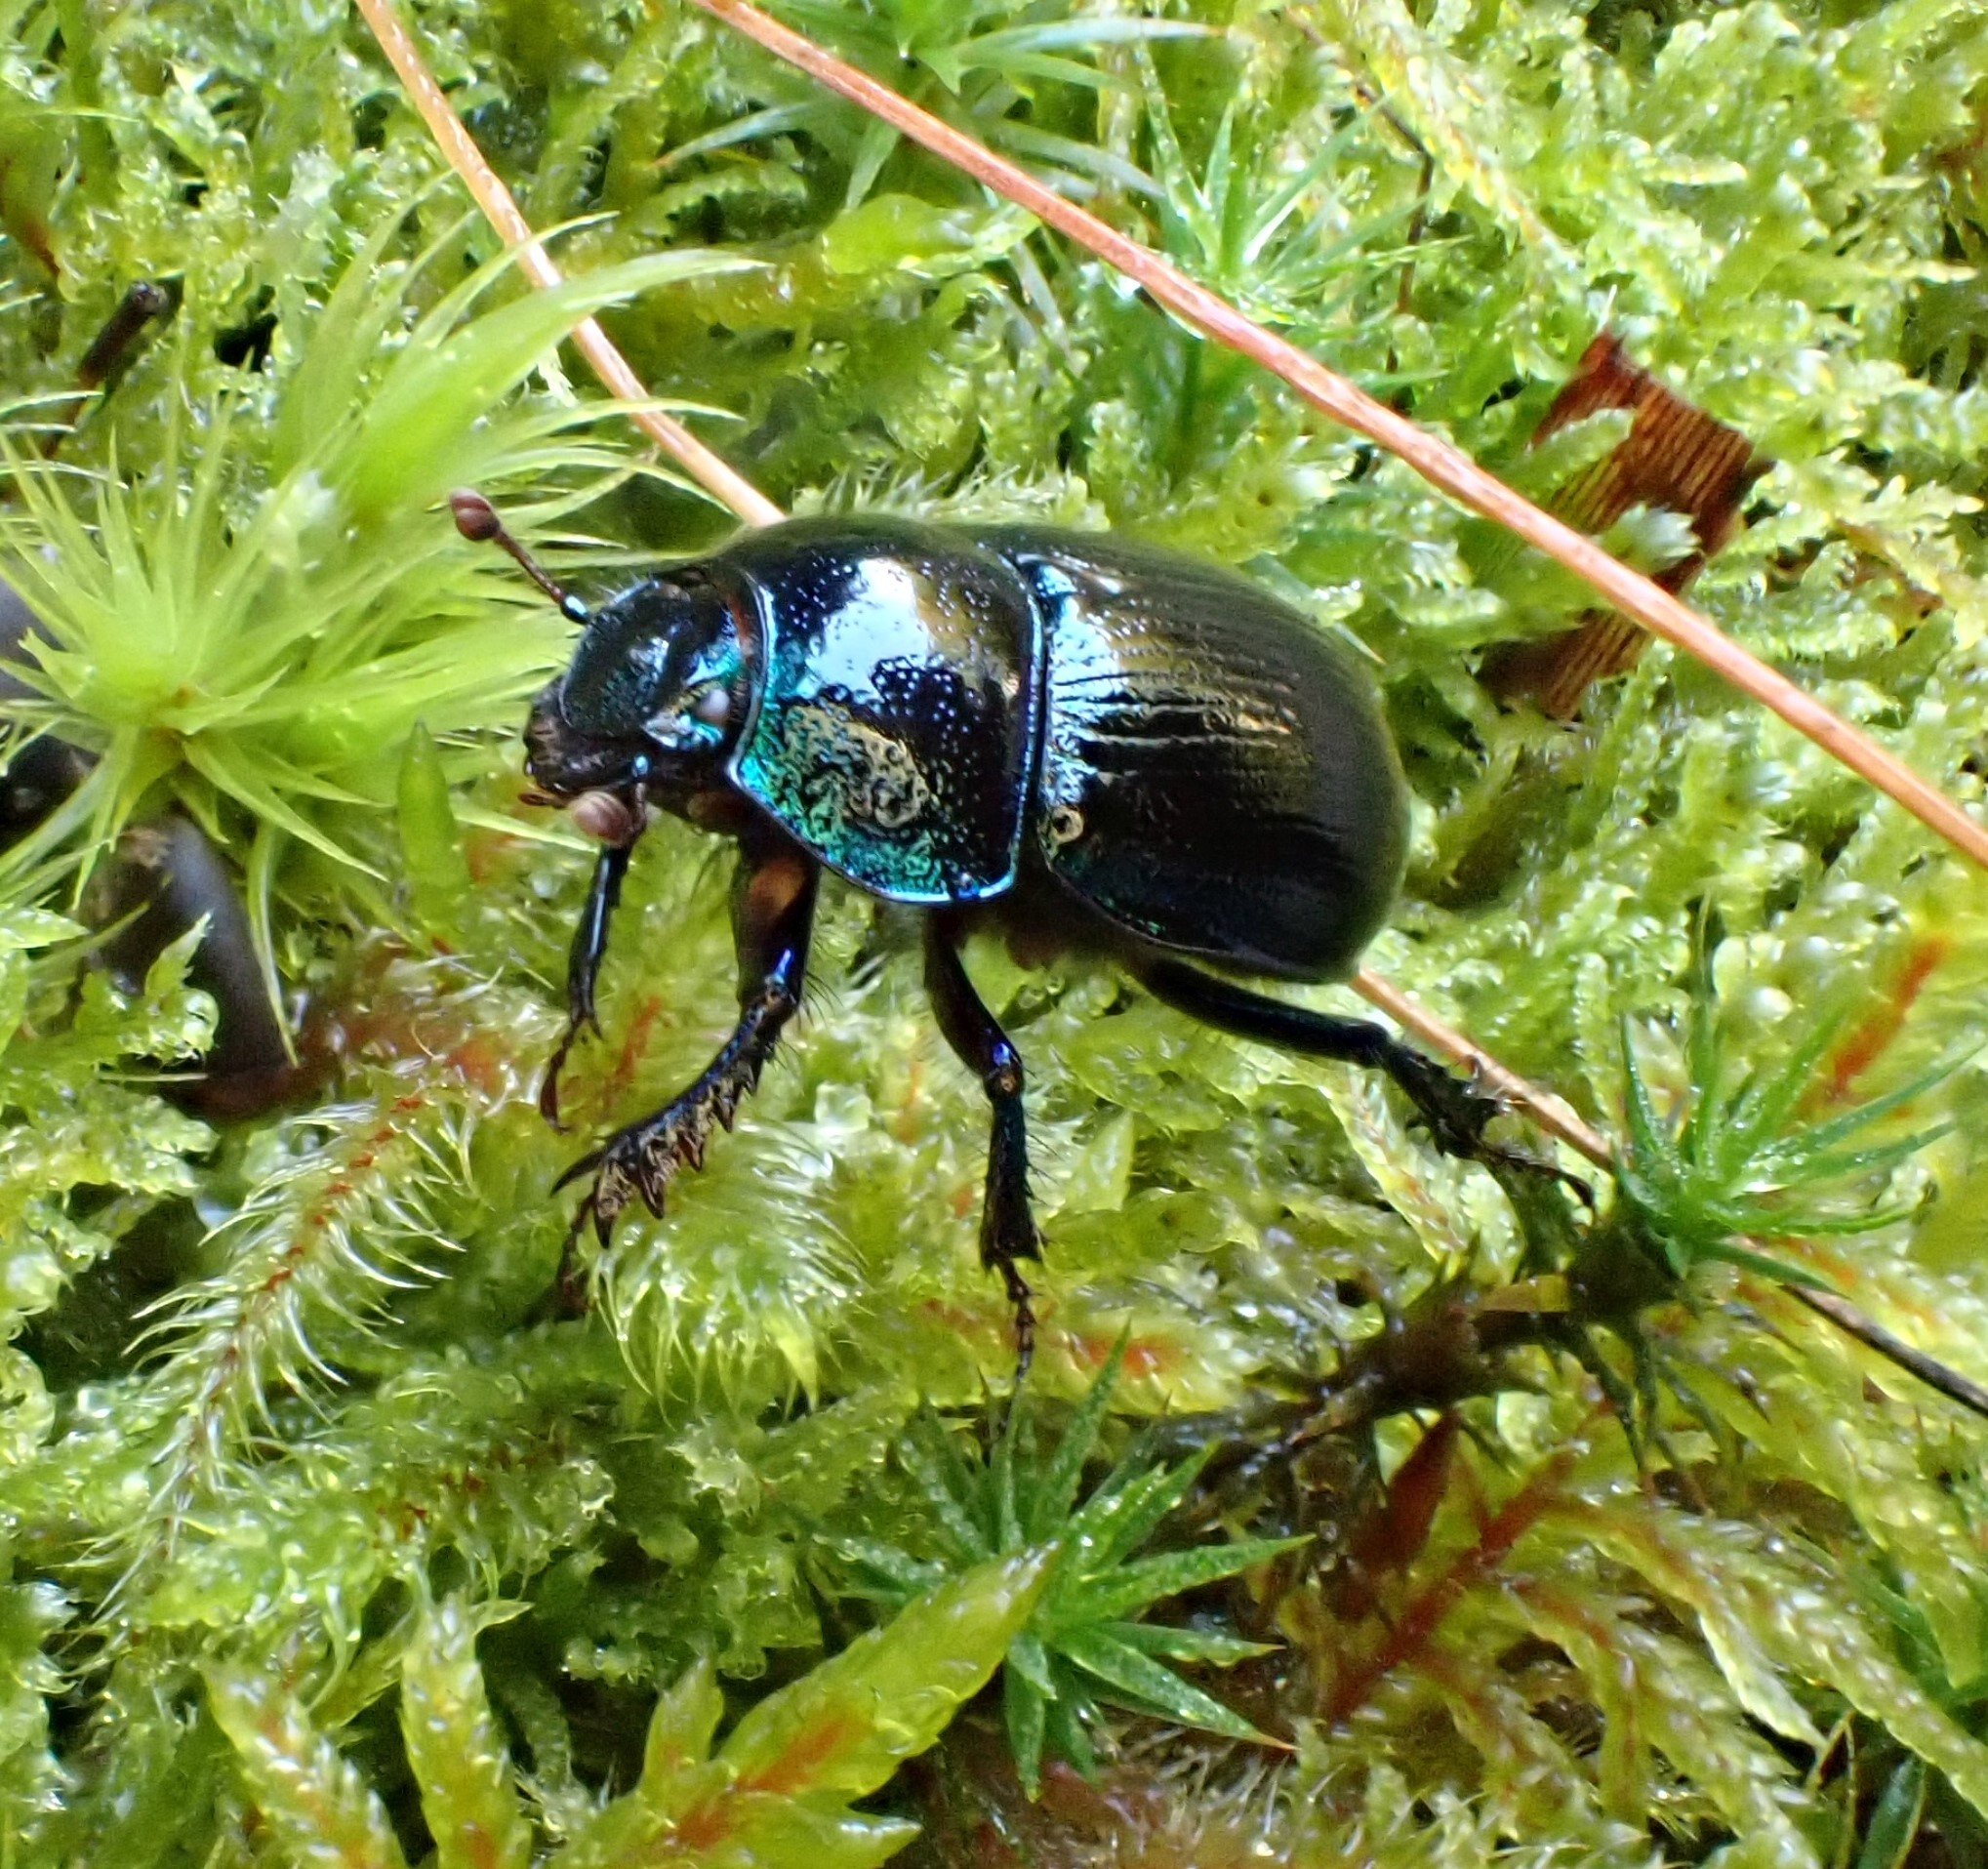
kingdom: Animalia
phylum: Arthropoda
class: Insecta
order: Coleoptera
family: Geotrupidae
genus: Anoplotrupes
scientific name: Anoplotrupes stercorosus
